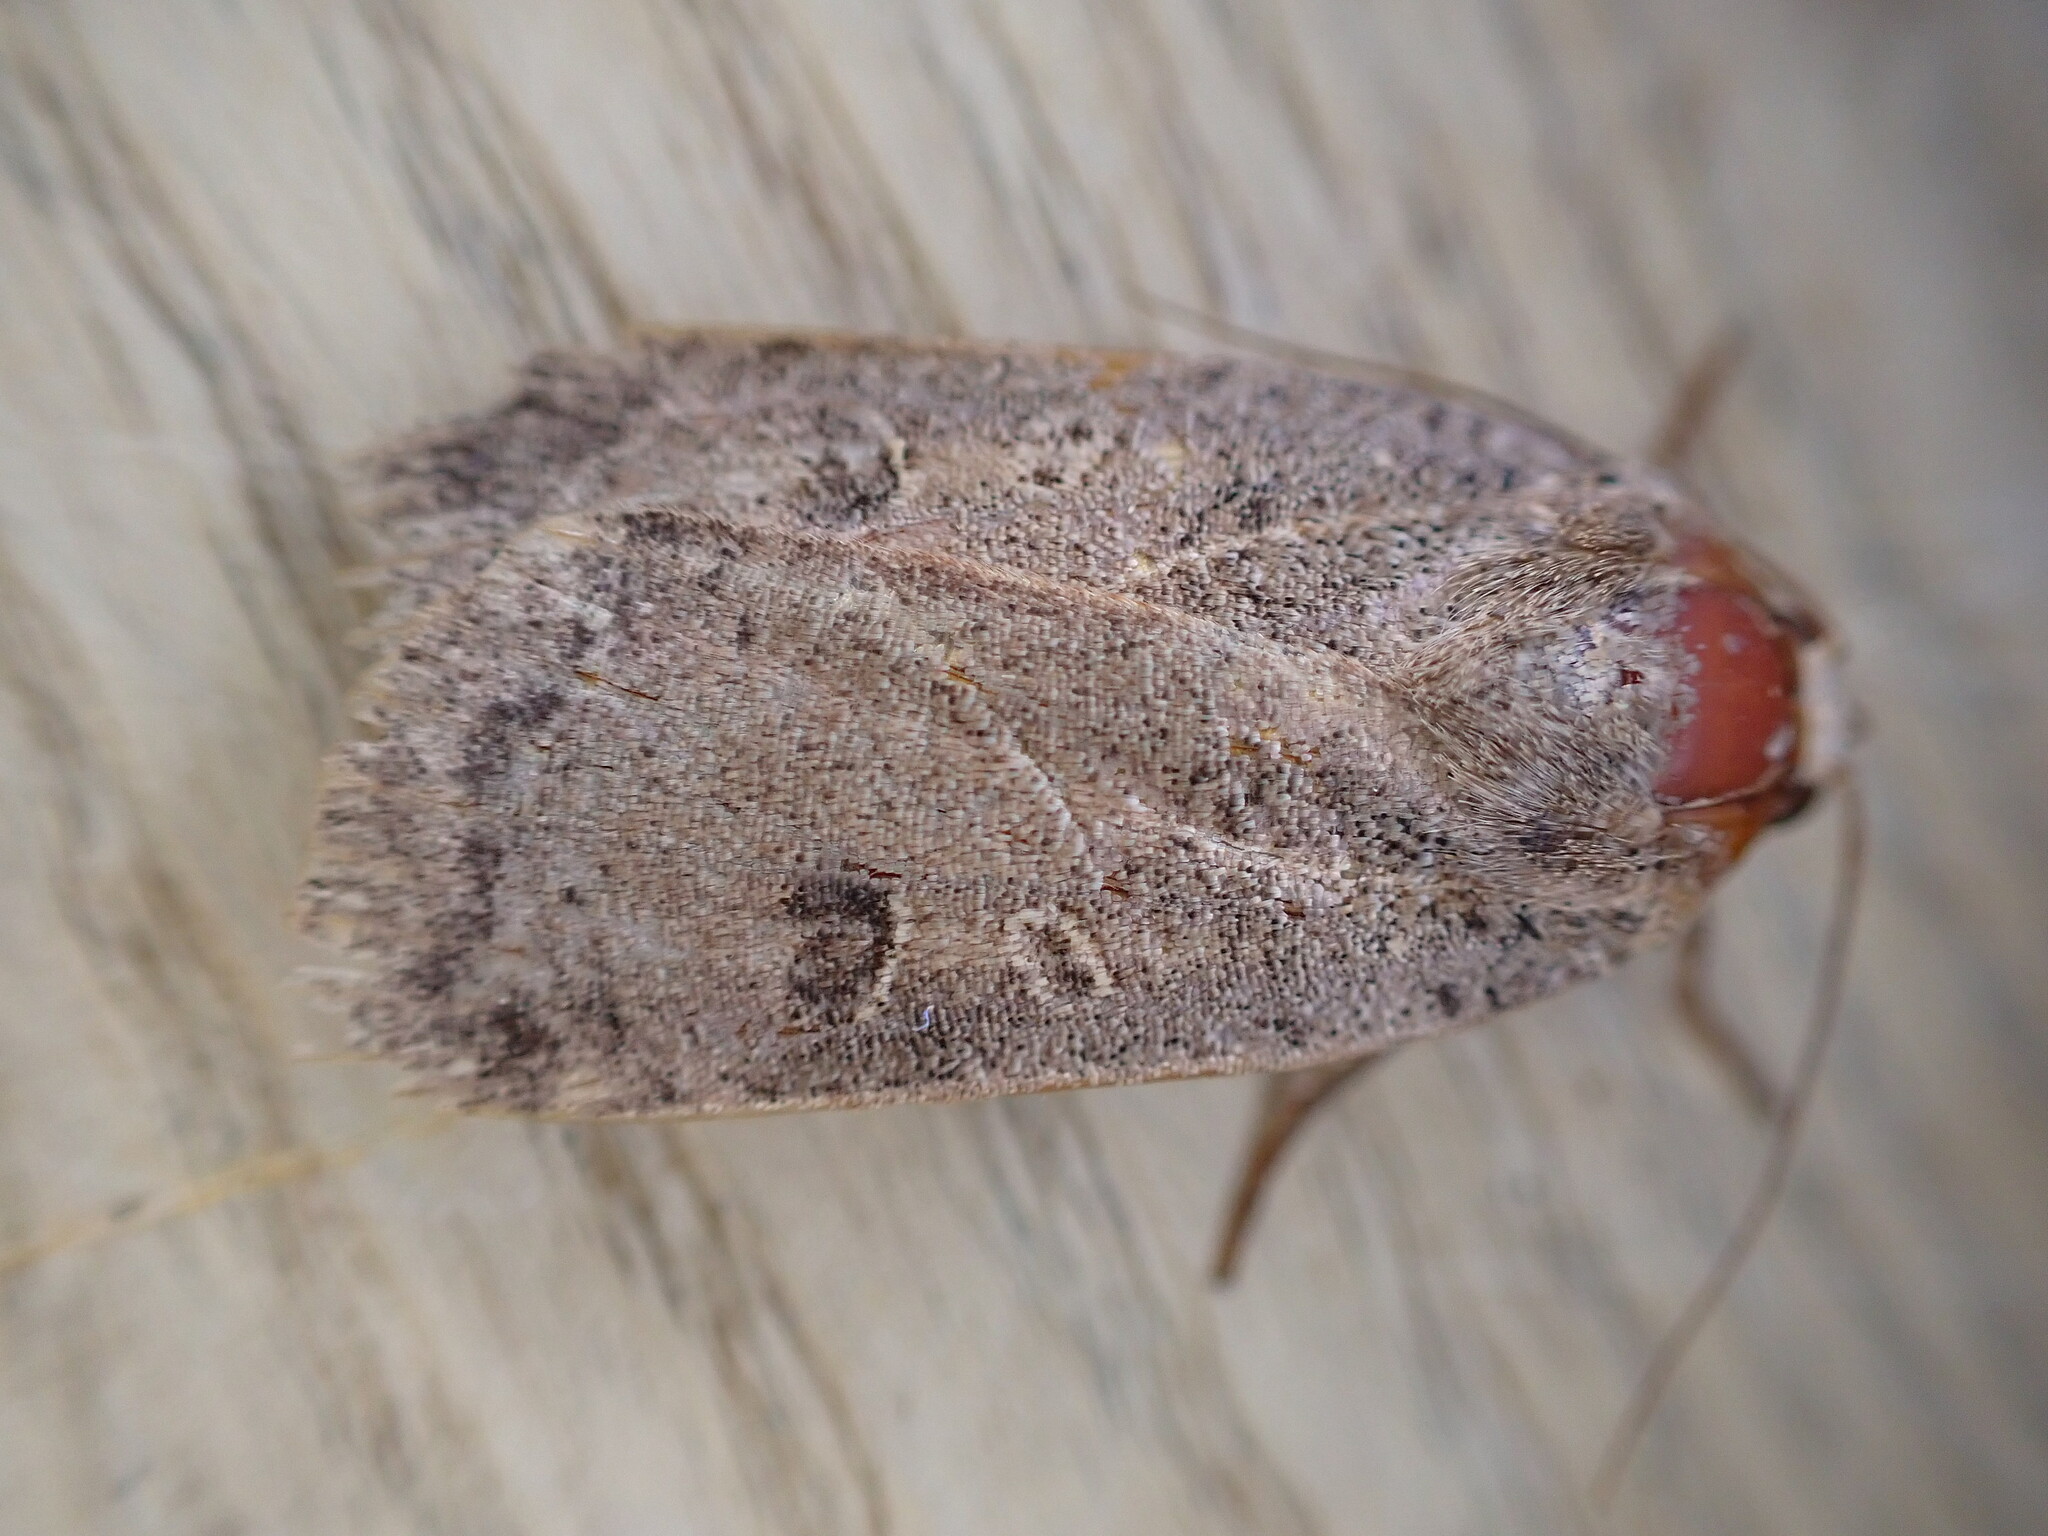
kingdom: Animalia
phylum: Arthropoda
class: Insecta
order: Lepidoptera
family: Noctuidae
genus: Noctua
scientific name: Noctua comes
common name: Lesser yellow underwing
